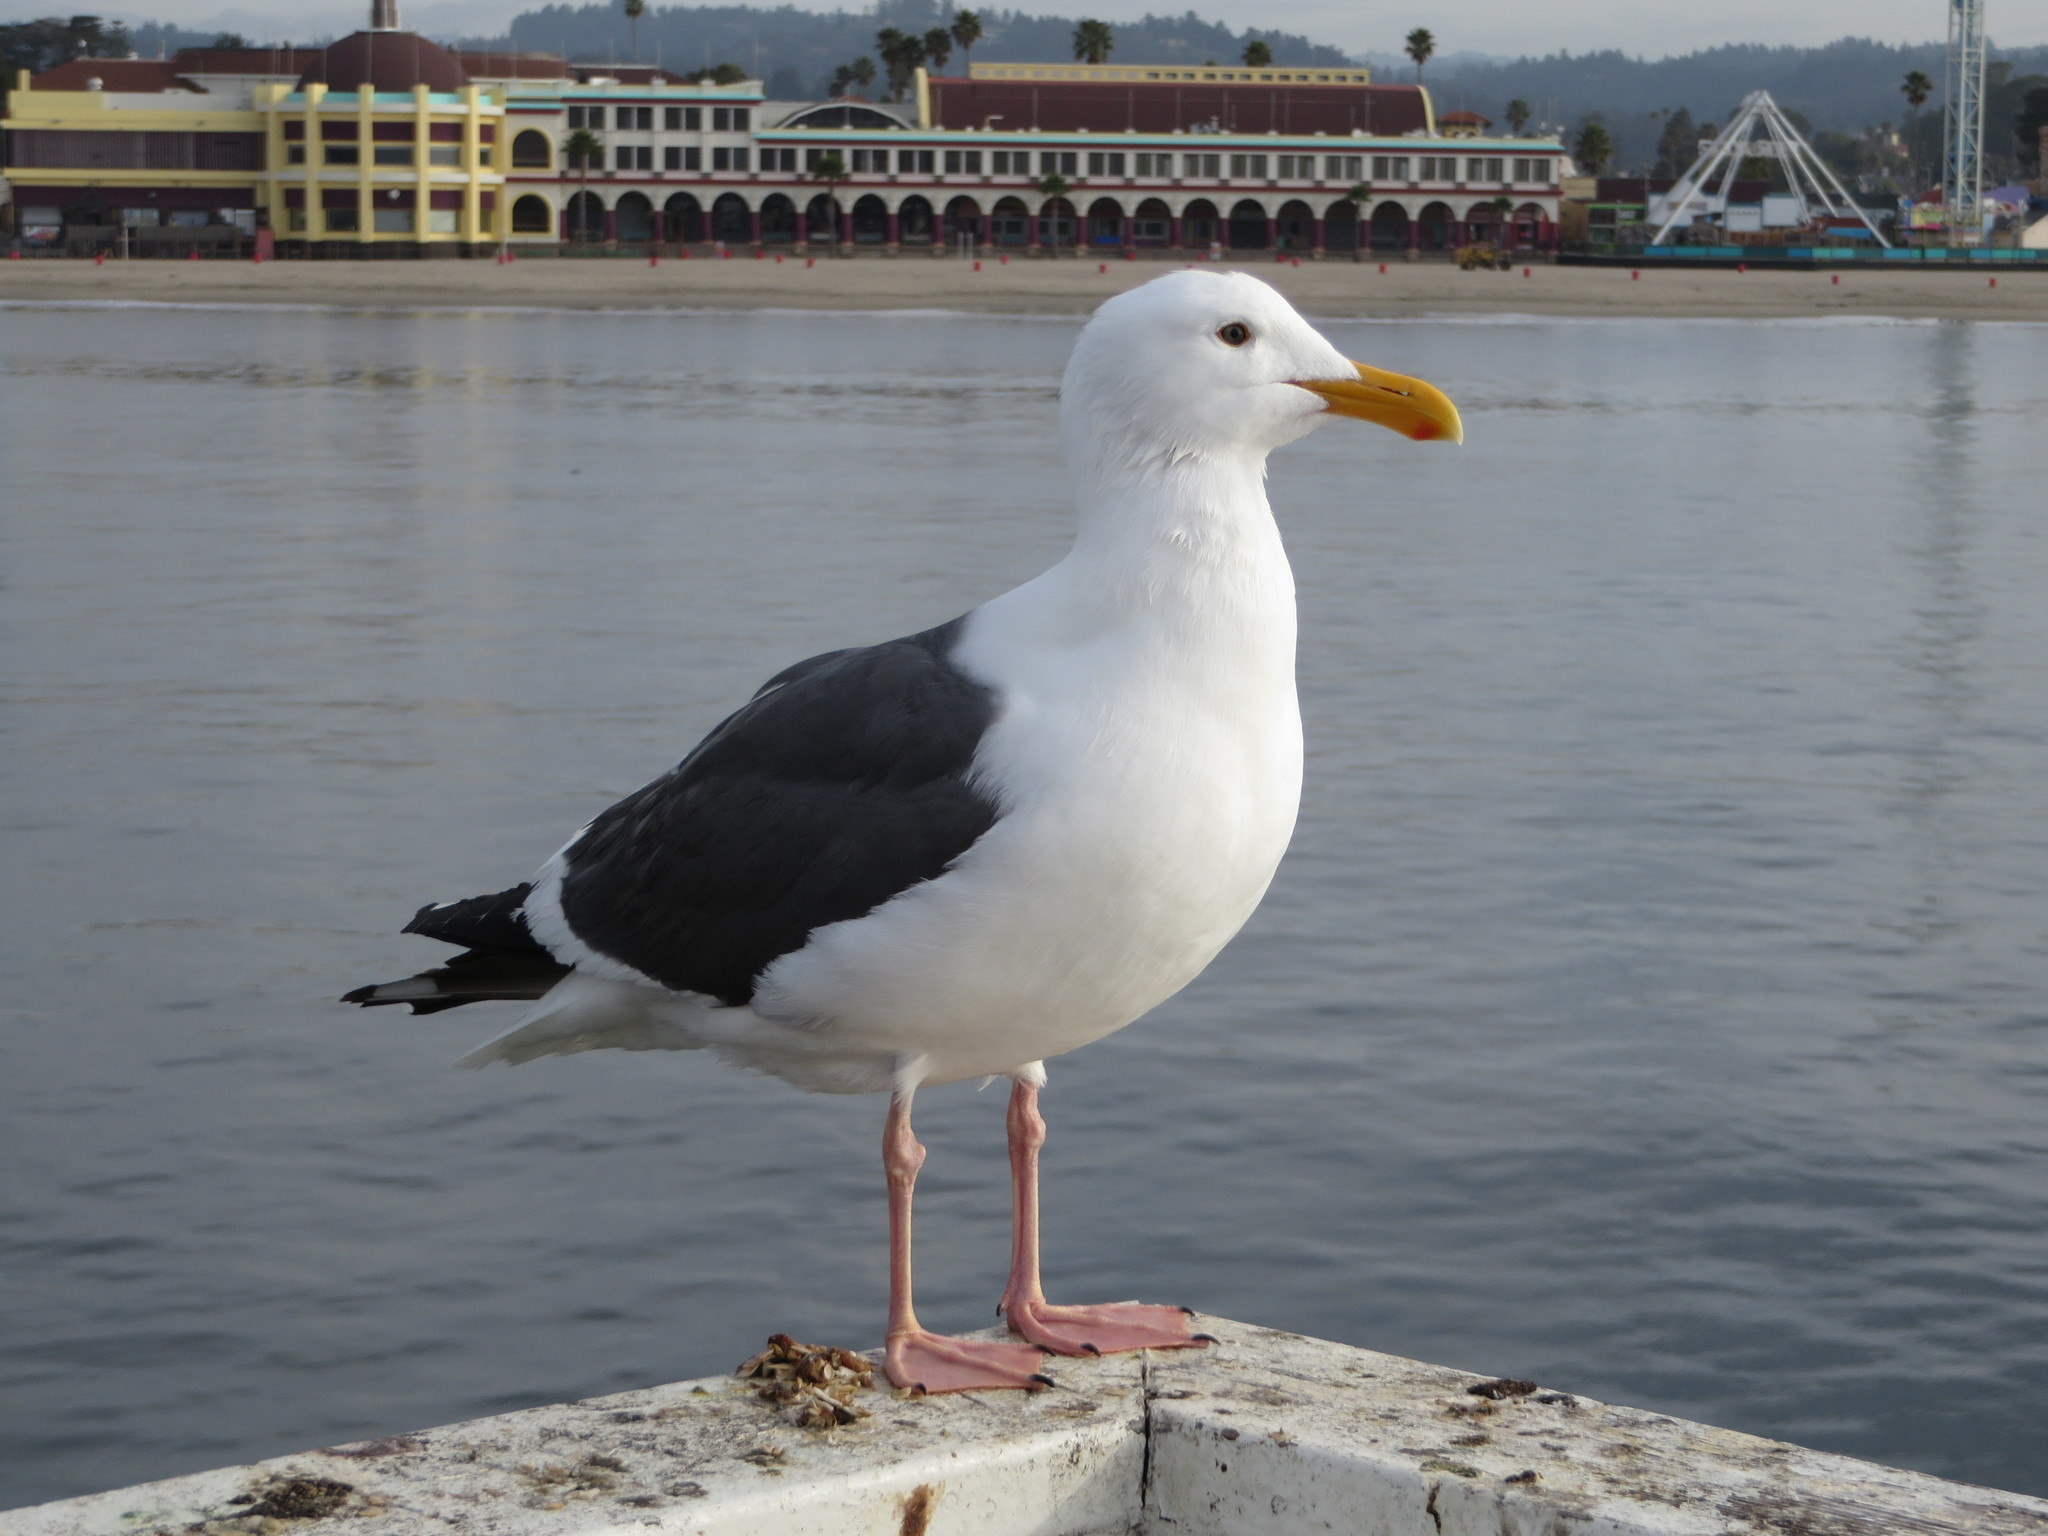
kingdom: Animalia
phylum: Chordata
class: Aves
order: Charadriiformes
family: Laridae
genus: Larus
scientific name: Larus occidentalis
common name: Western gull
